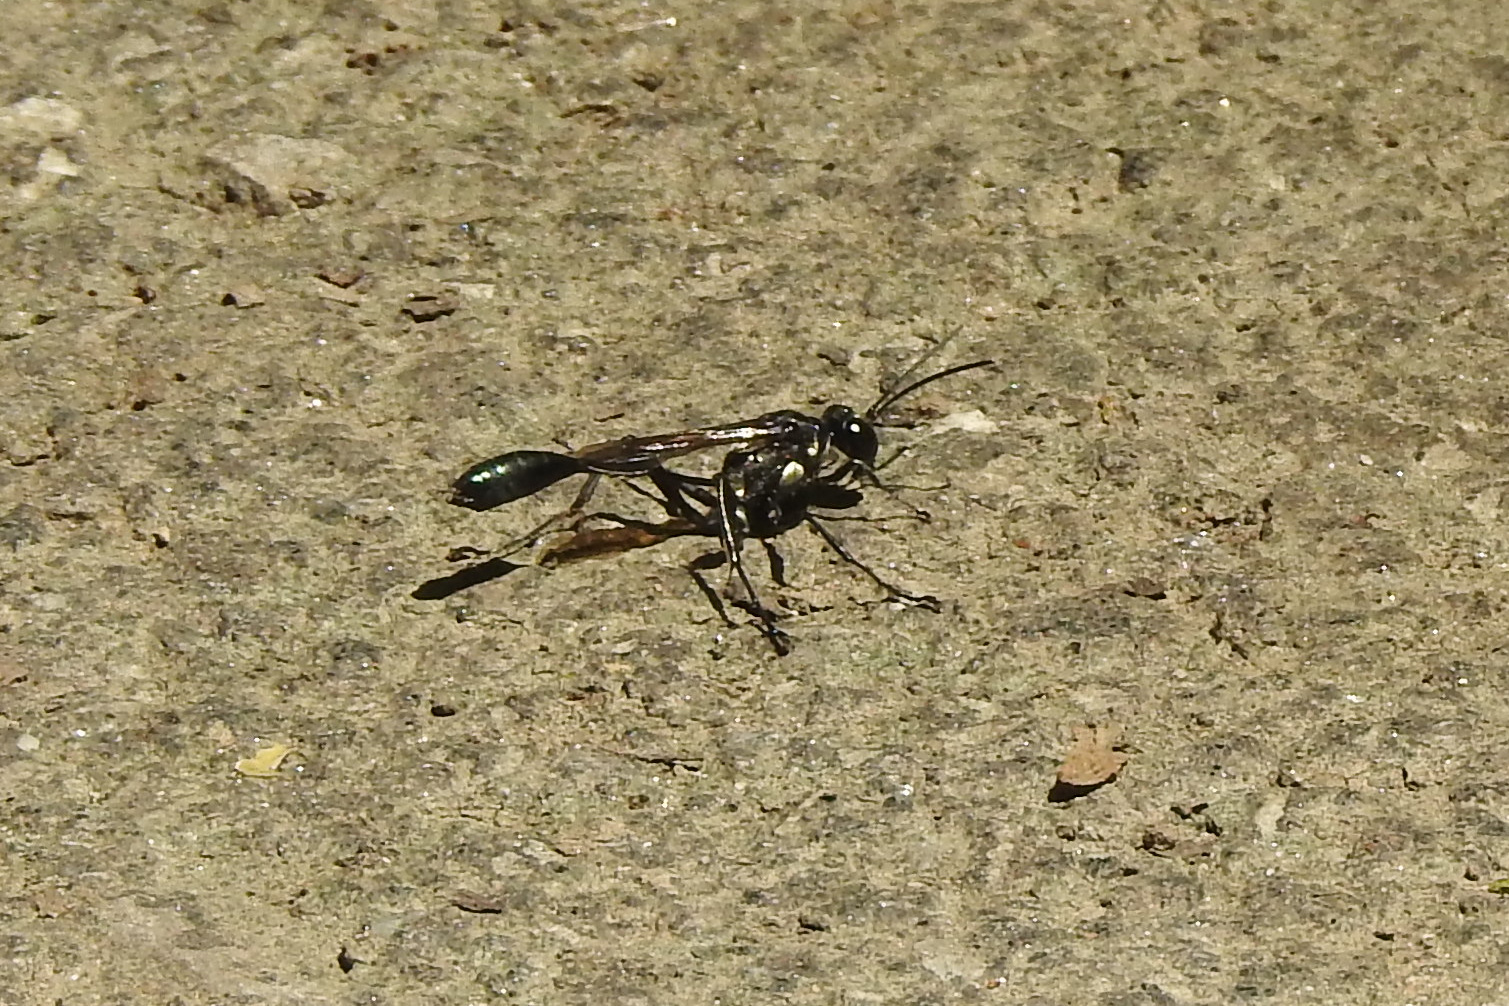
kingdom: Animalia
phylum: Arthropoda
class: Insecta
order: Hymenoptera
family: Sphecidae
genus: Eremnophila
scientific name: Eremnophila aureonotata
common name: Gold-marked thread-waisted wasp
